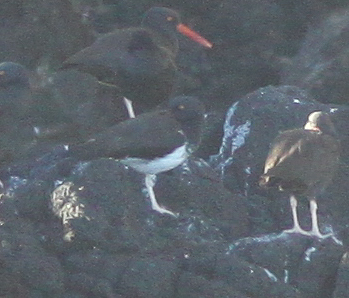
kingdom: Animalia
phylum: Chordata
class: Aves
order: Charadriiformes
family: Haematopodidae
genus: Haematopus
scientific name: Haematopus
